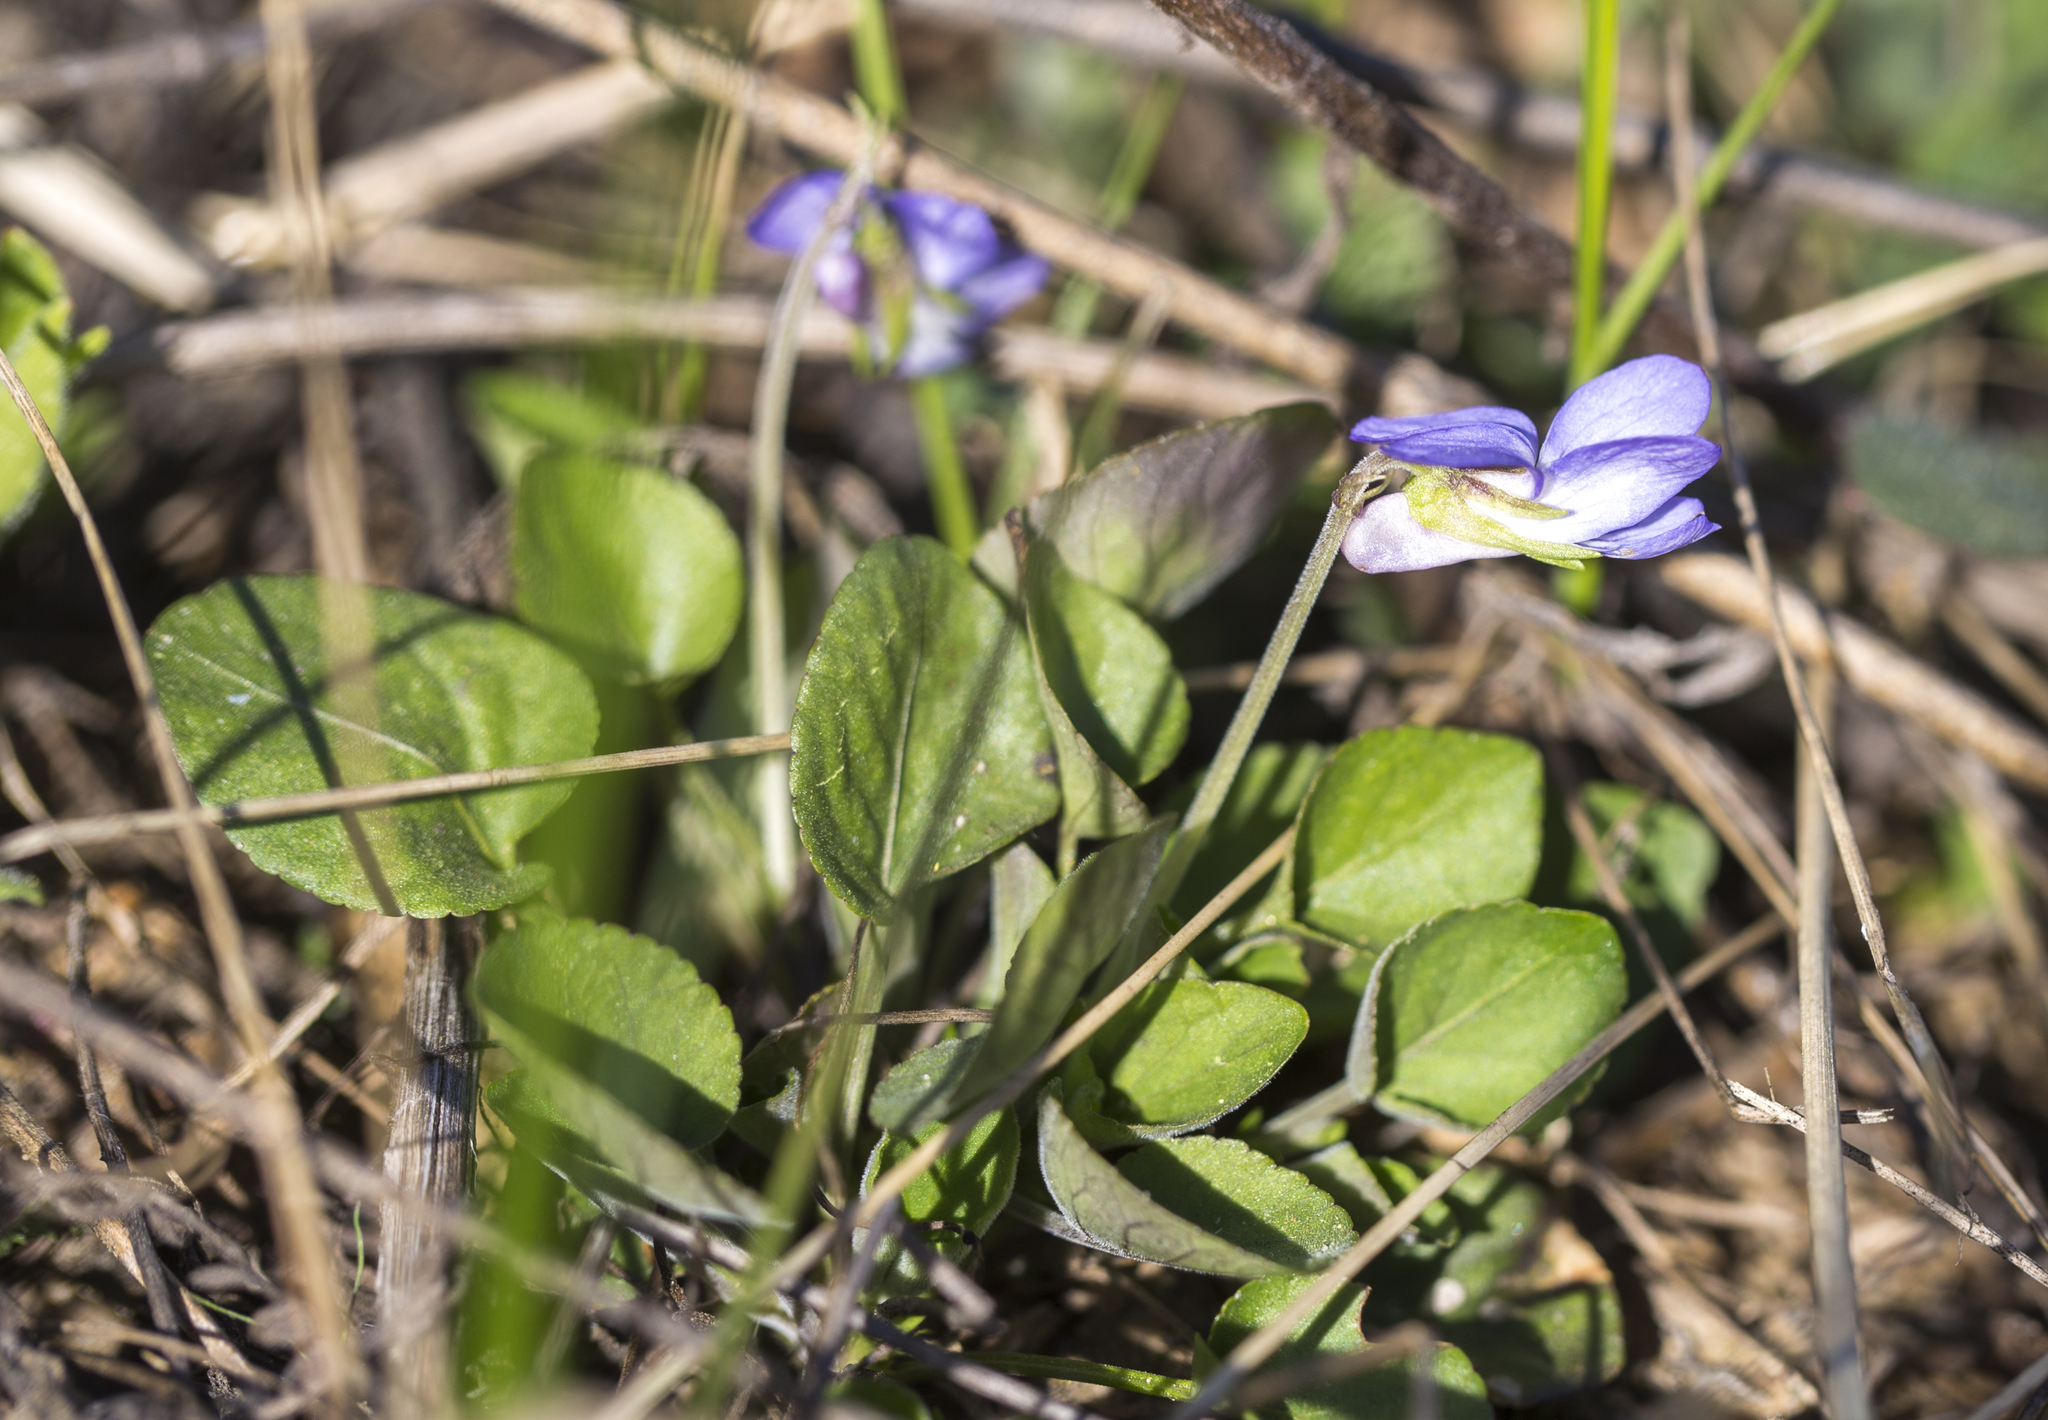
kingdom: Plantae
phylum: Tracheophyta
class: Magnoliopsida
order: Malpighiales
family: Violaceae
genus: Viola
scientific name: Viola rupestris
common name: Teesdale violet
